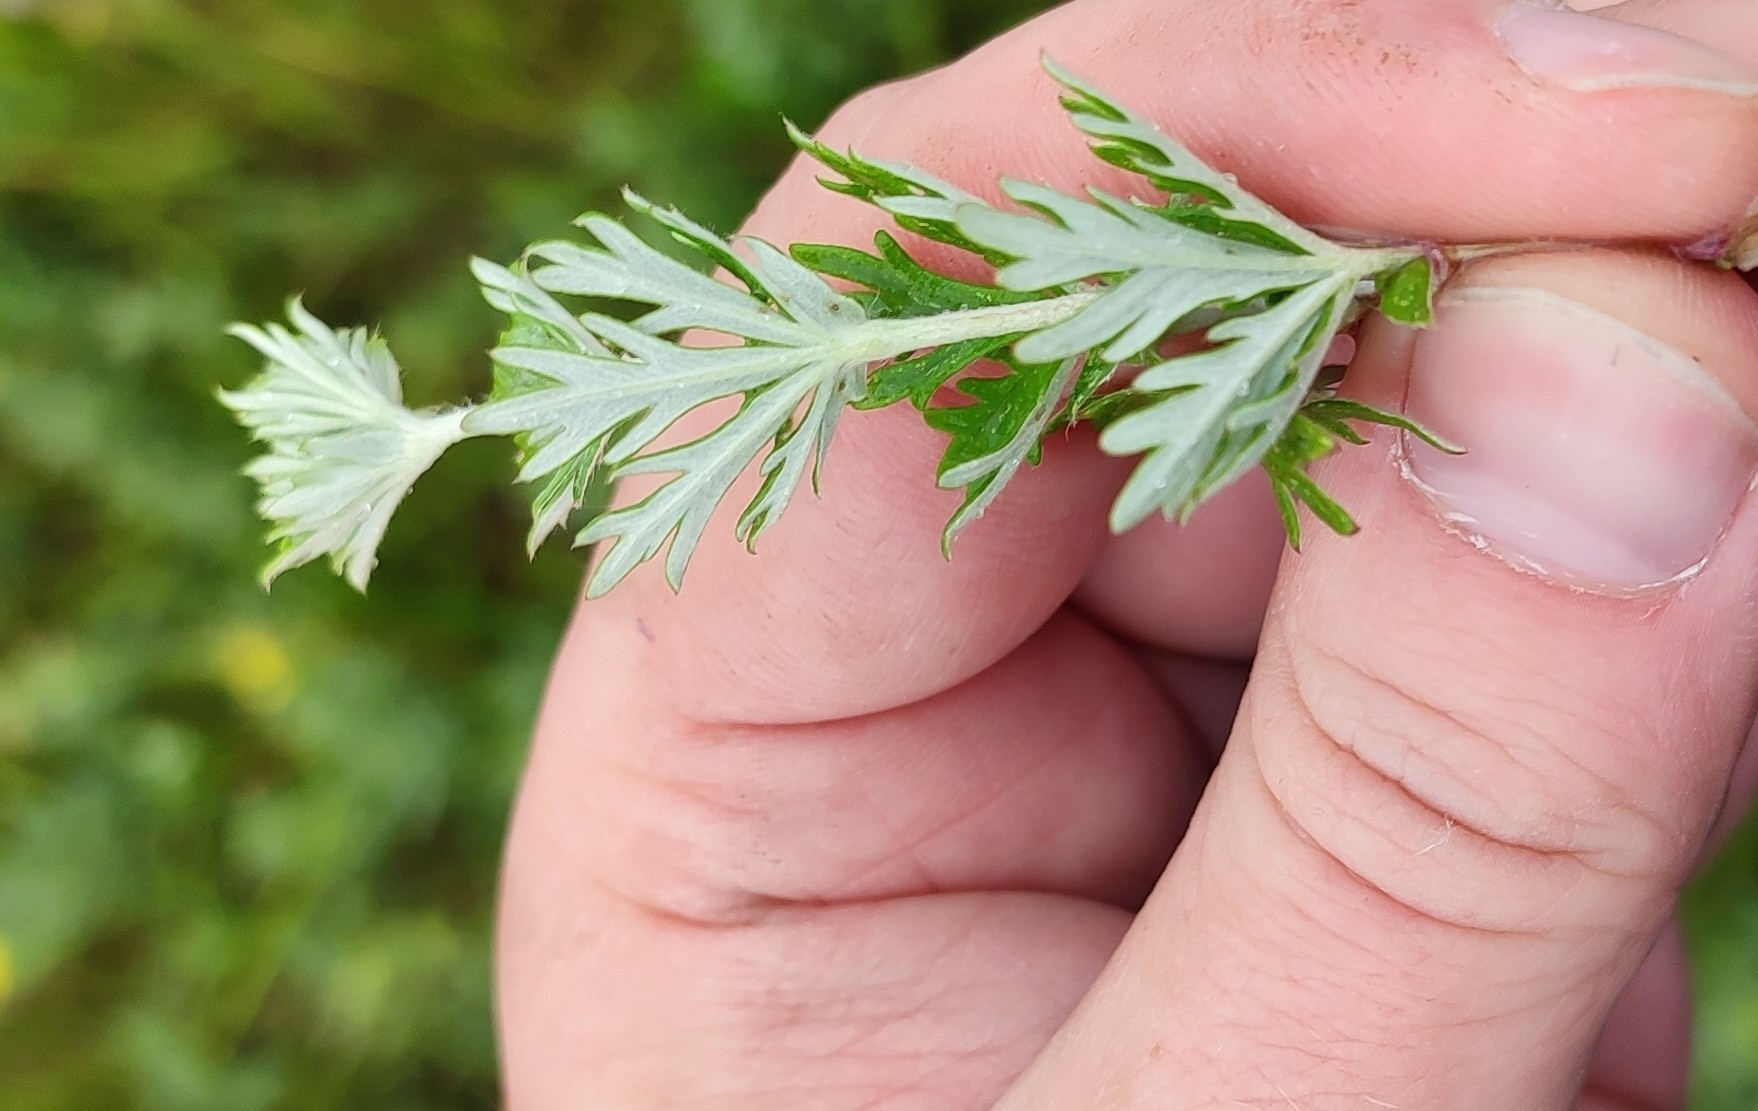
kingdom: Plantae
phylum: Tracheophyta
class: Magnoliopsida
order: Rosales
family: Rosaceae
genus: Potentilla
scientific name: Potentilla argentea
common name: Hoary cinquefoil
